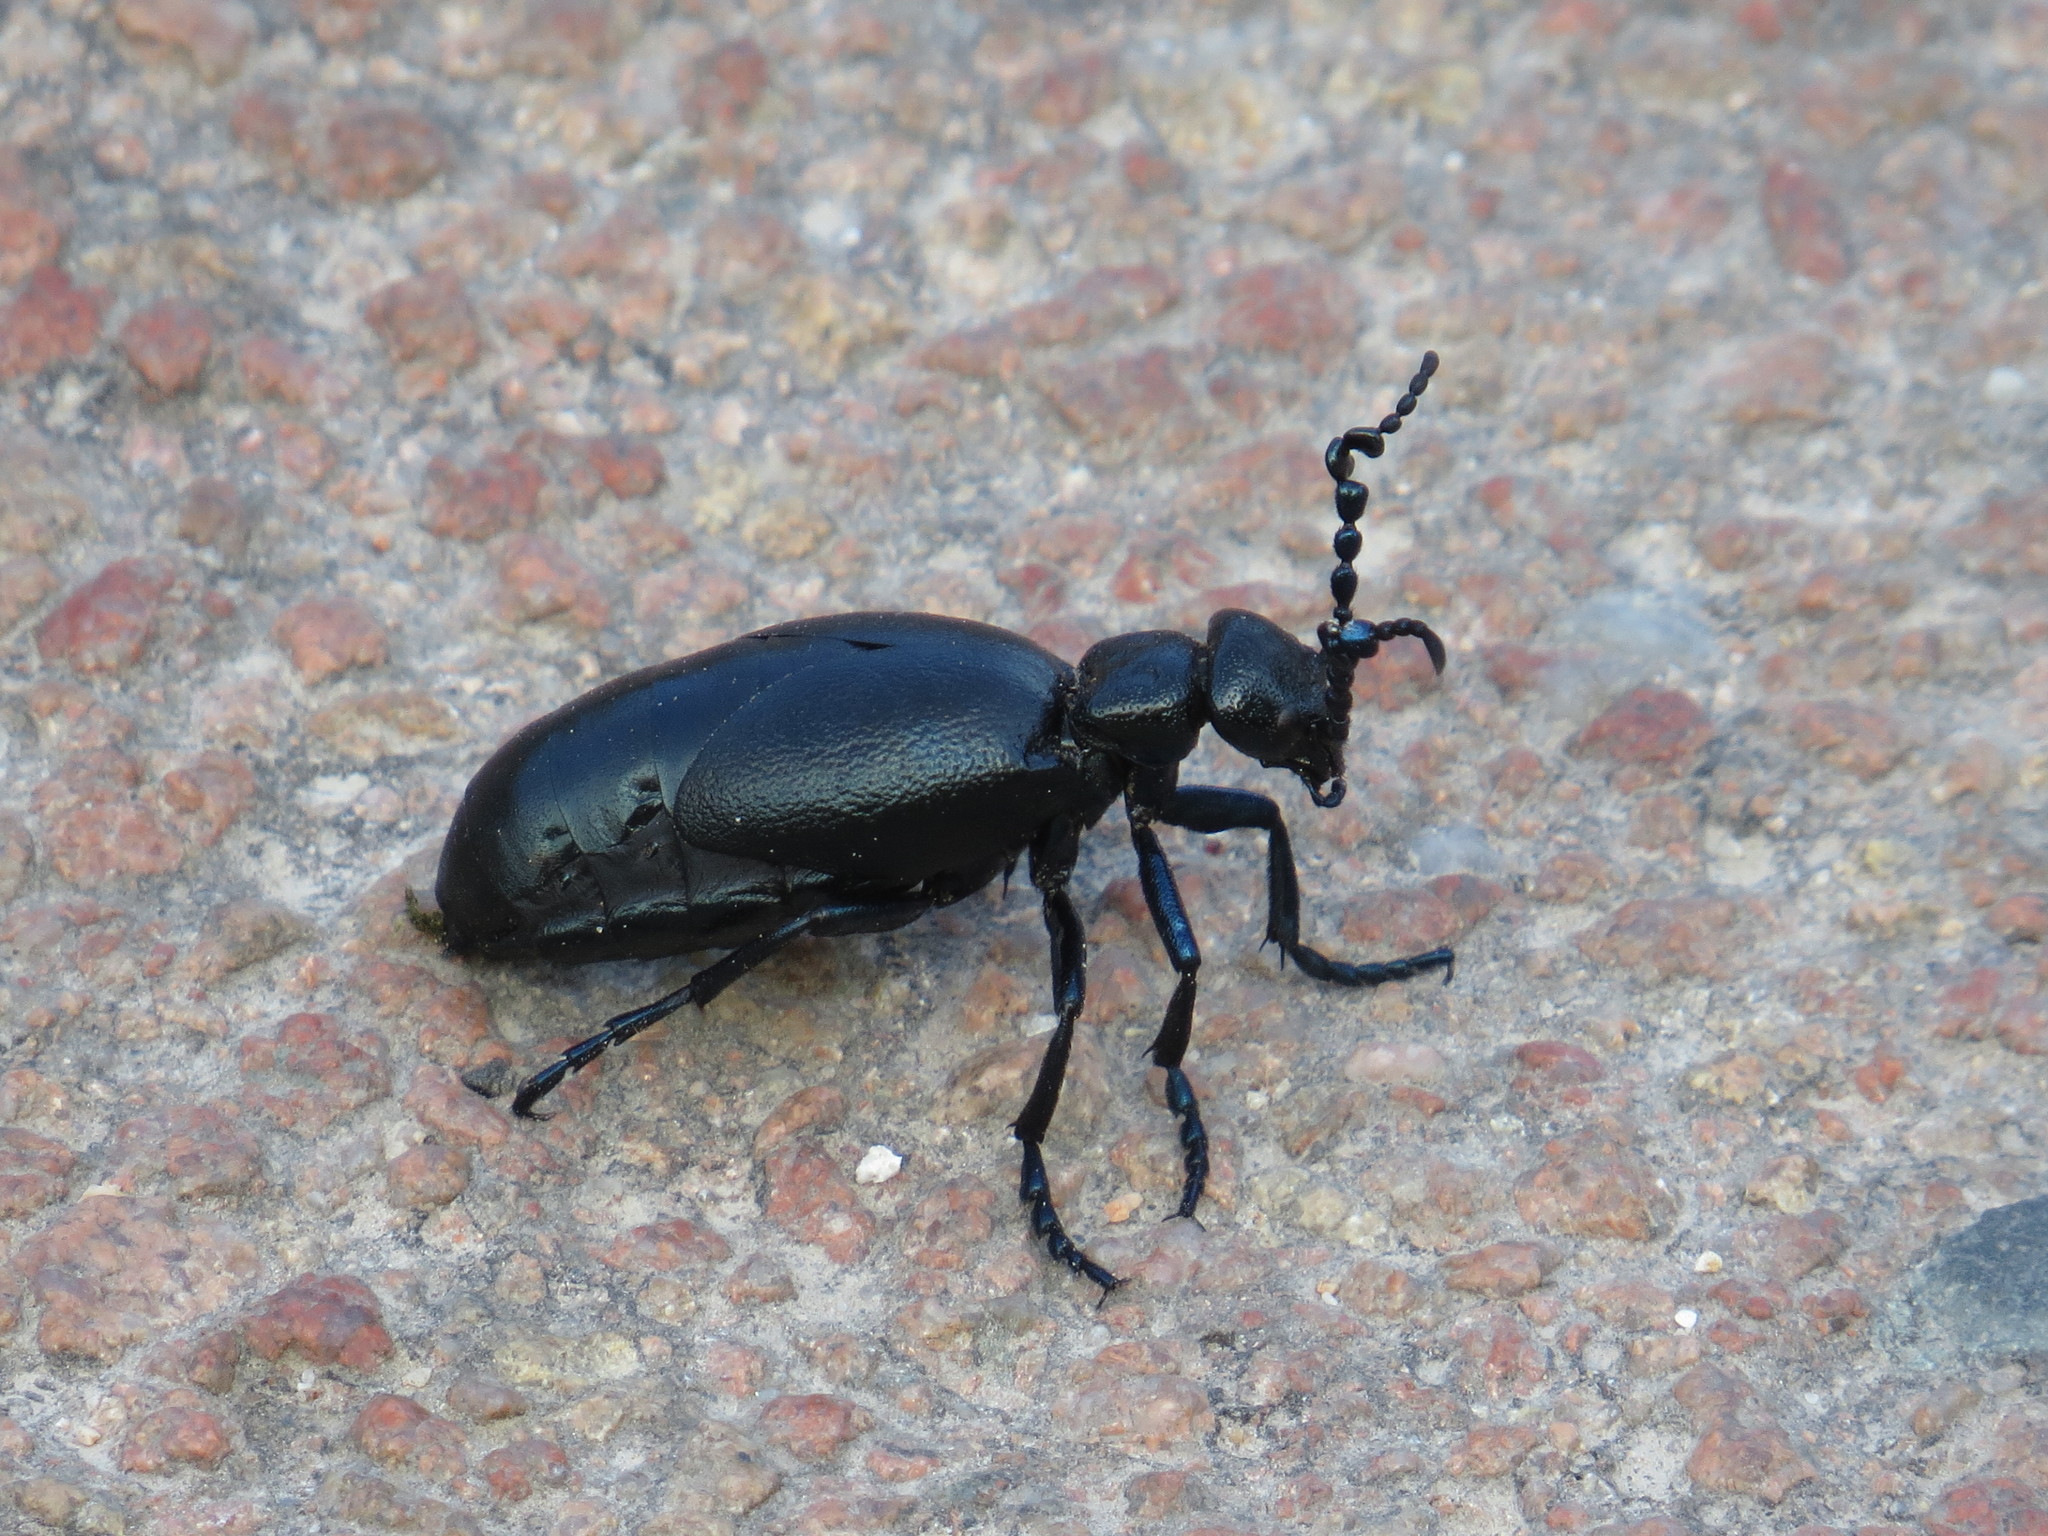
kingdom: Animalia
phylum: Arthropoda
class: Insecta
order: Coleoptera
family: Meloidae
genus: Meloe
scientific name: Meloe violaceus
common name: Violet oil-beetle
